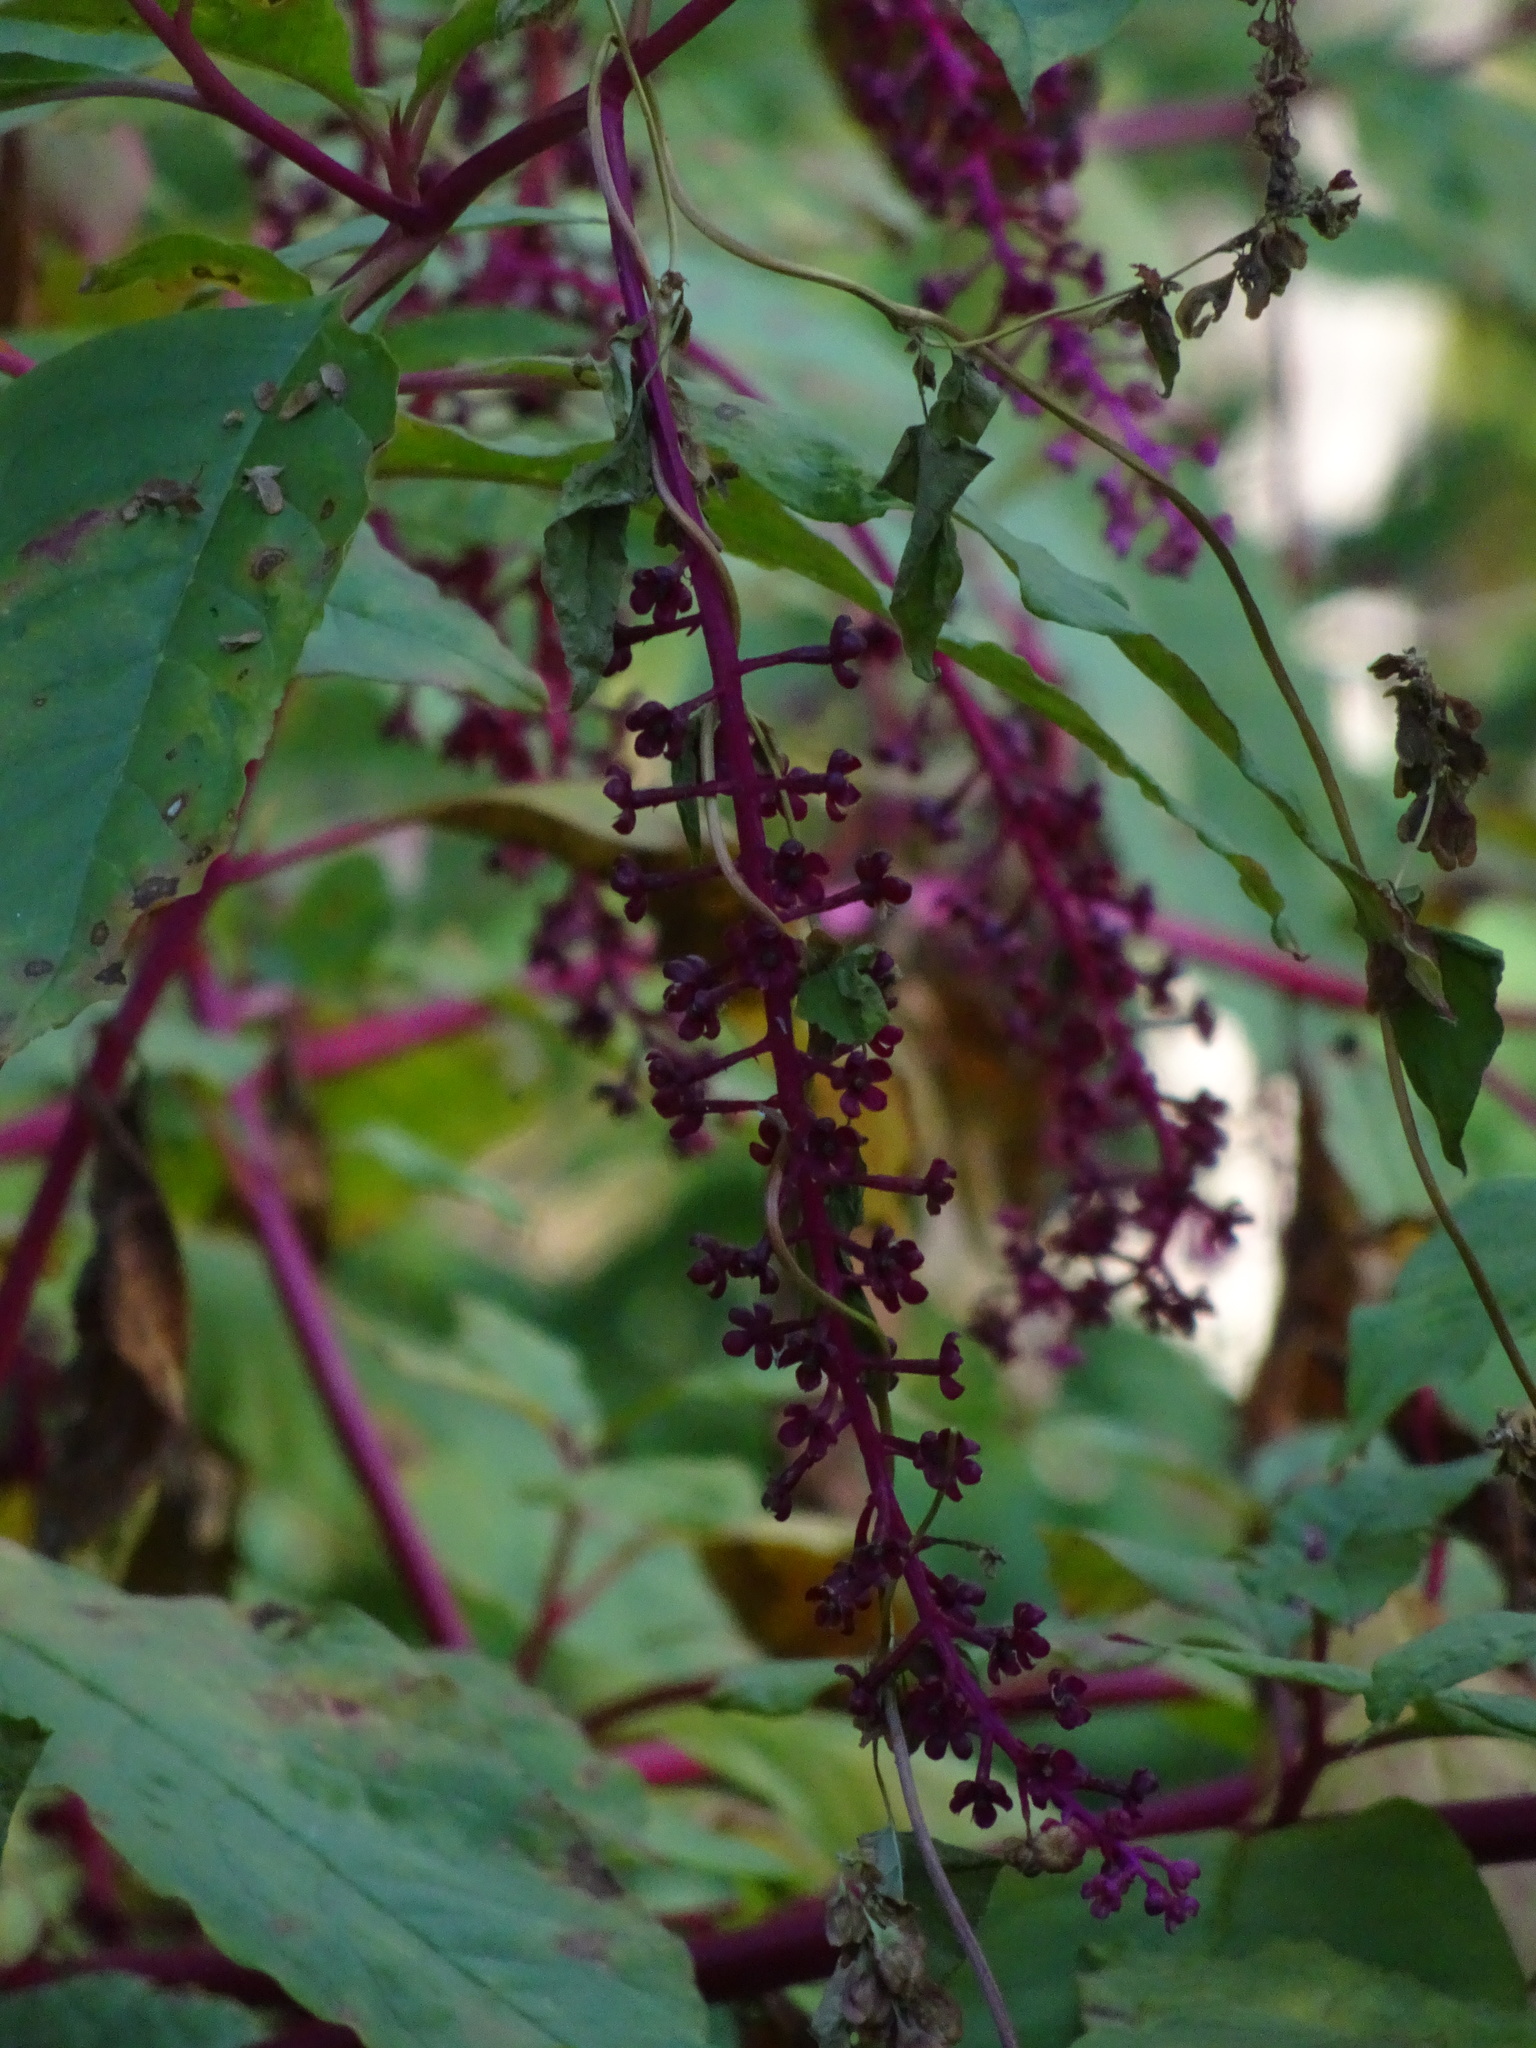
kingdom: Plantae
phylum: Tracheophyta
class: Magnoliopsida
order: Caryophyllales
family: Phytolaccaceae
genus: Phytolacca
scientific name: Phytolacca americana
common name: American pokeweed
